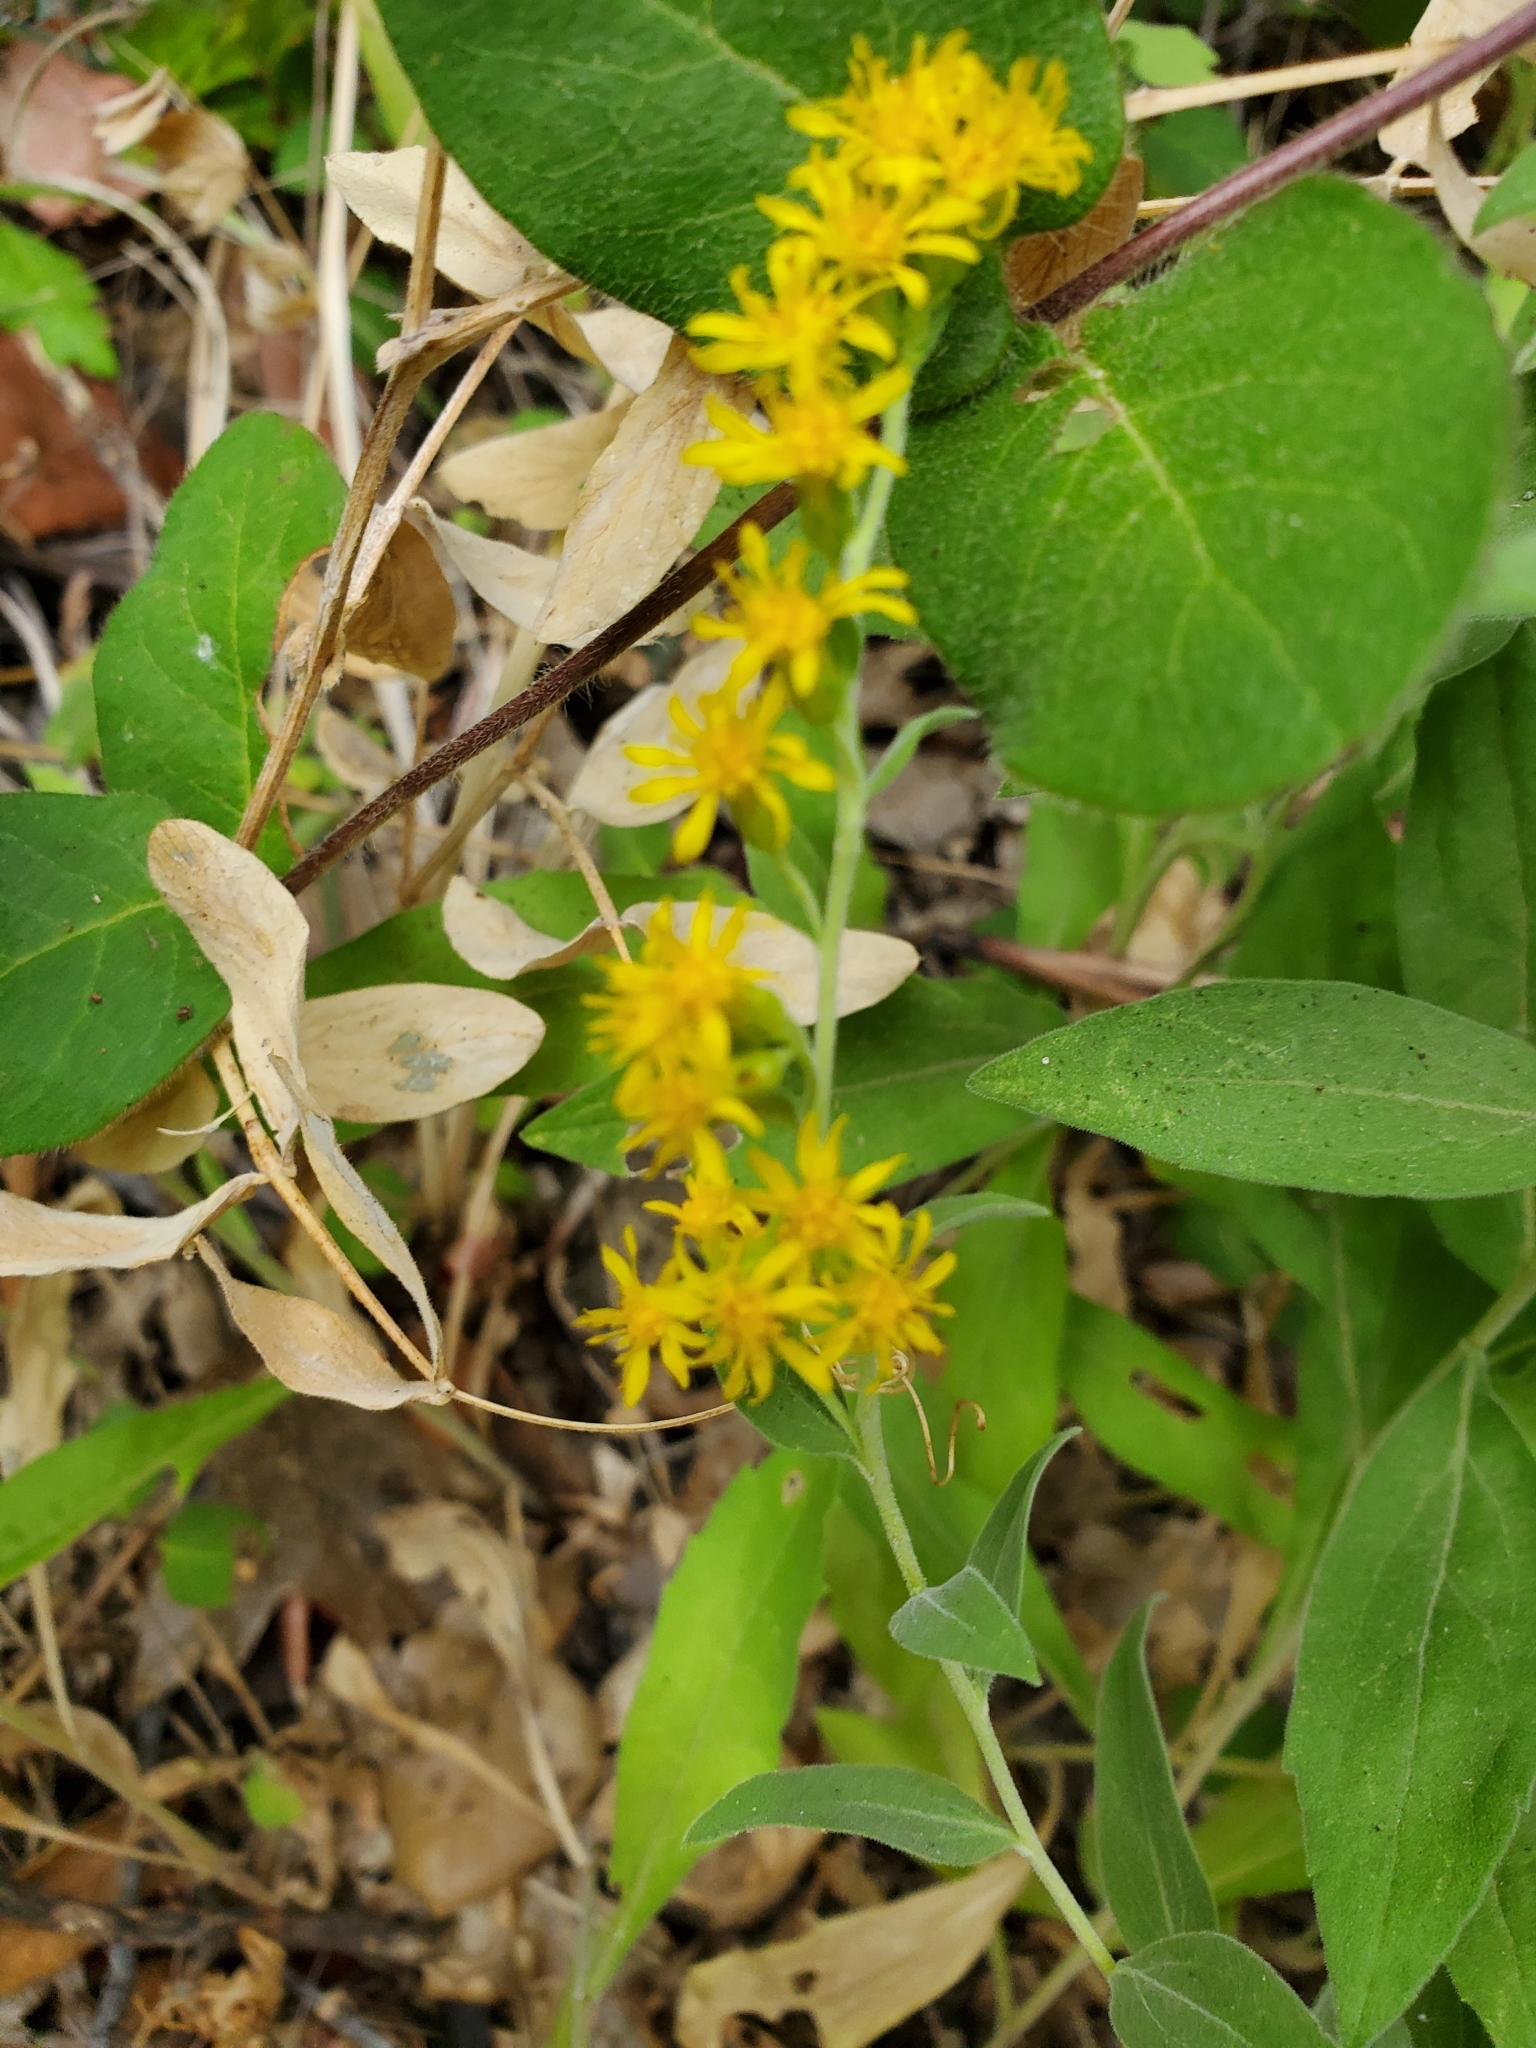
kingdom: Plantae
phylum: Tracheophyta
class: Magnoliopsida
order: Asterales
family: Asteraceae
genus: Solidago
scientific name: Solidago velutina
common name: Three-nerve goldenrod
